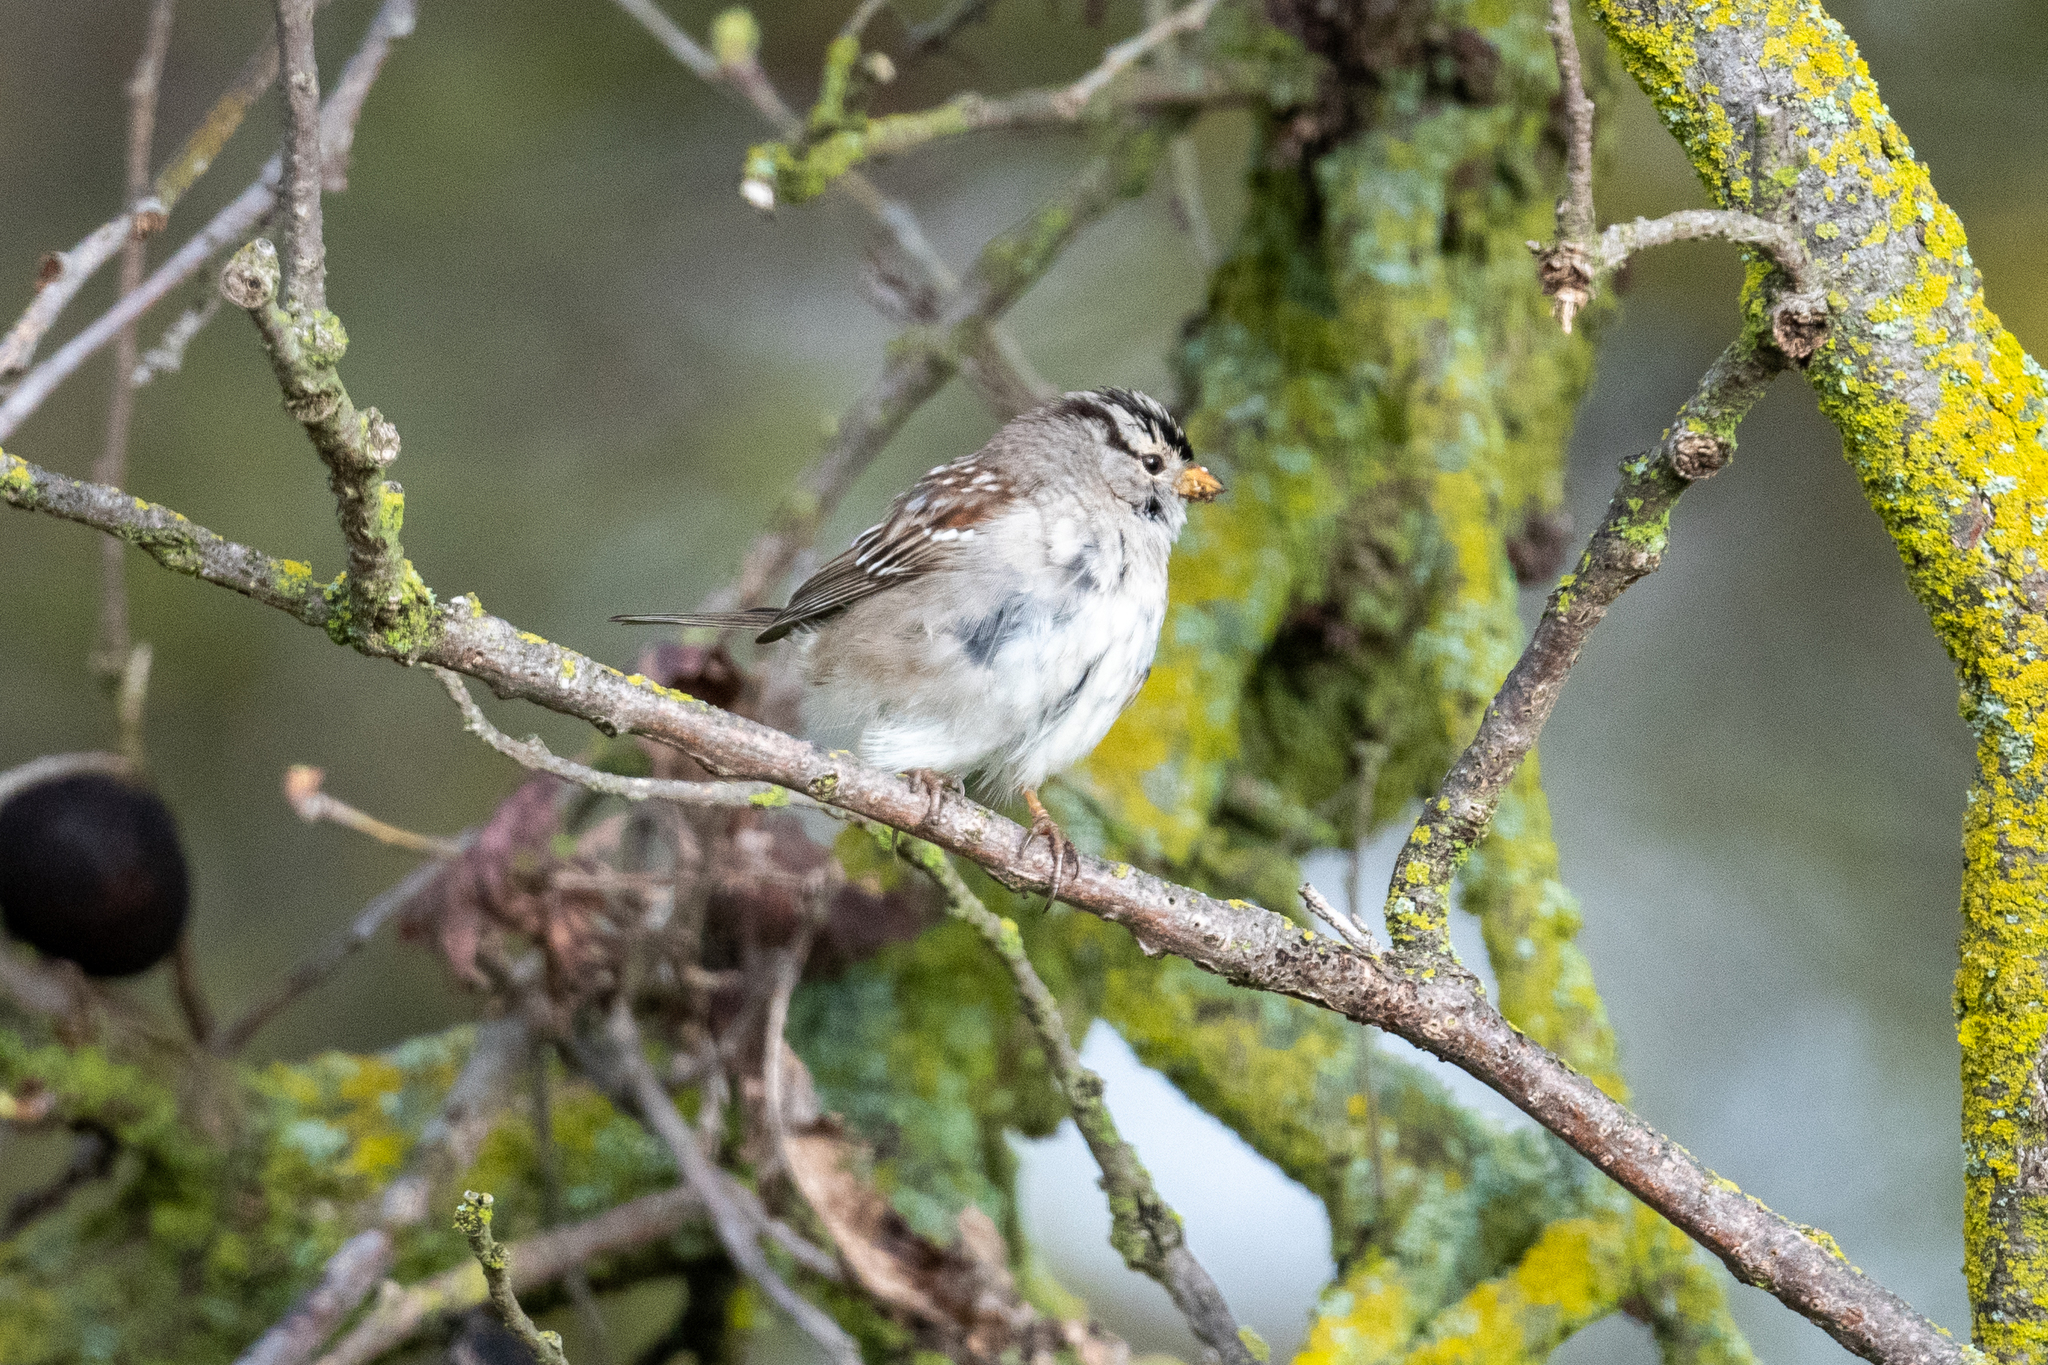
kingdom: Animalia
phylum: Chordata
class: Aves
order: Passeriformes
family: Passerellidae
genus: Zonotrichia
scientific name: Zonotrichia leucophrys
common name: White-crowned sparrow
